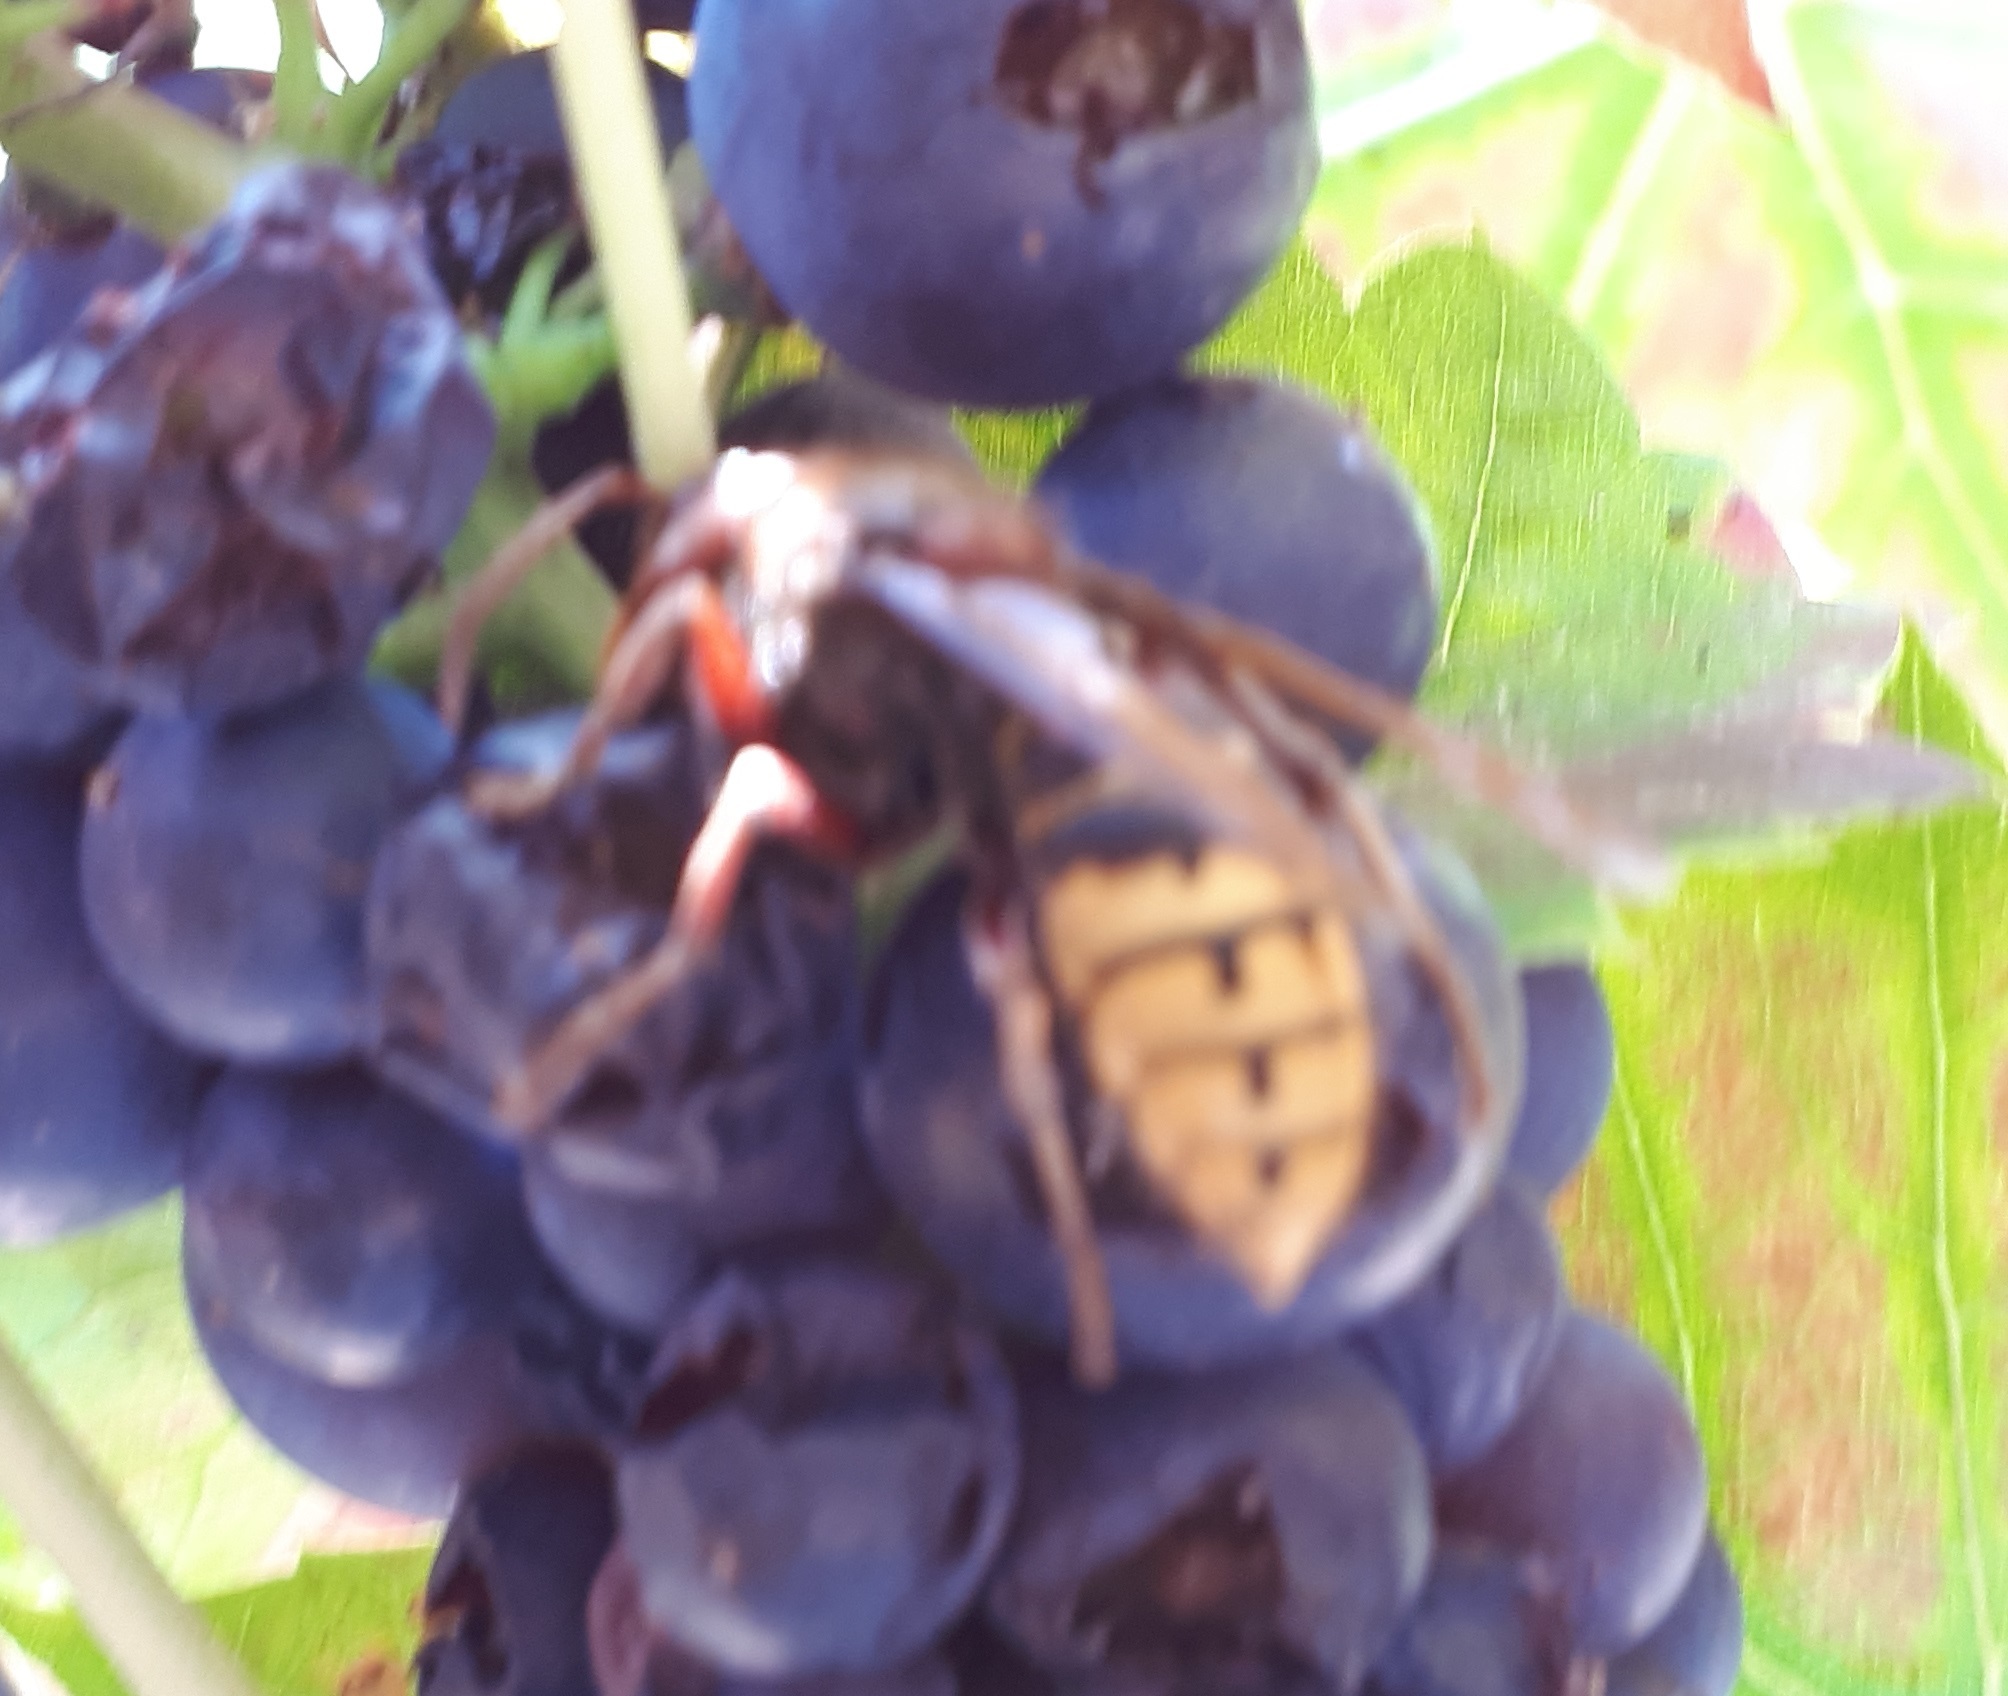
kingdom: Animalia
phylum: Arthropoda
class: Insecta
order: Hymenoptera
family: Vespidae
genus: Vespa
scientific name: Vespa crabro
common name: Hornet
